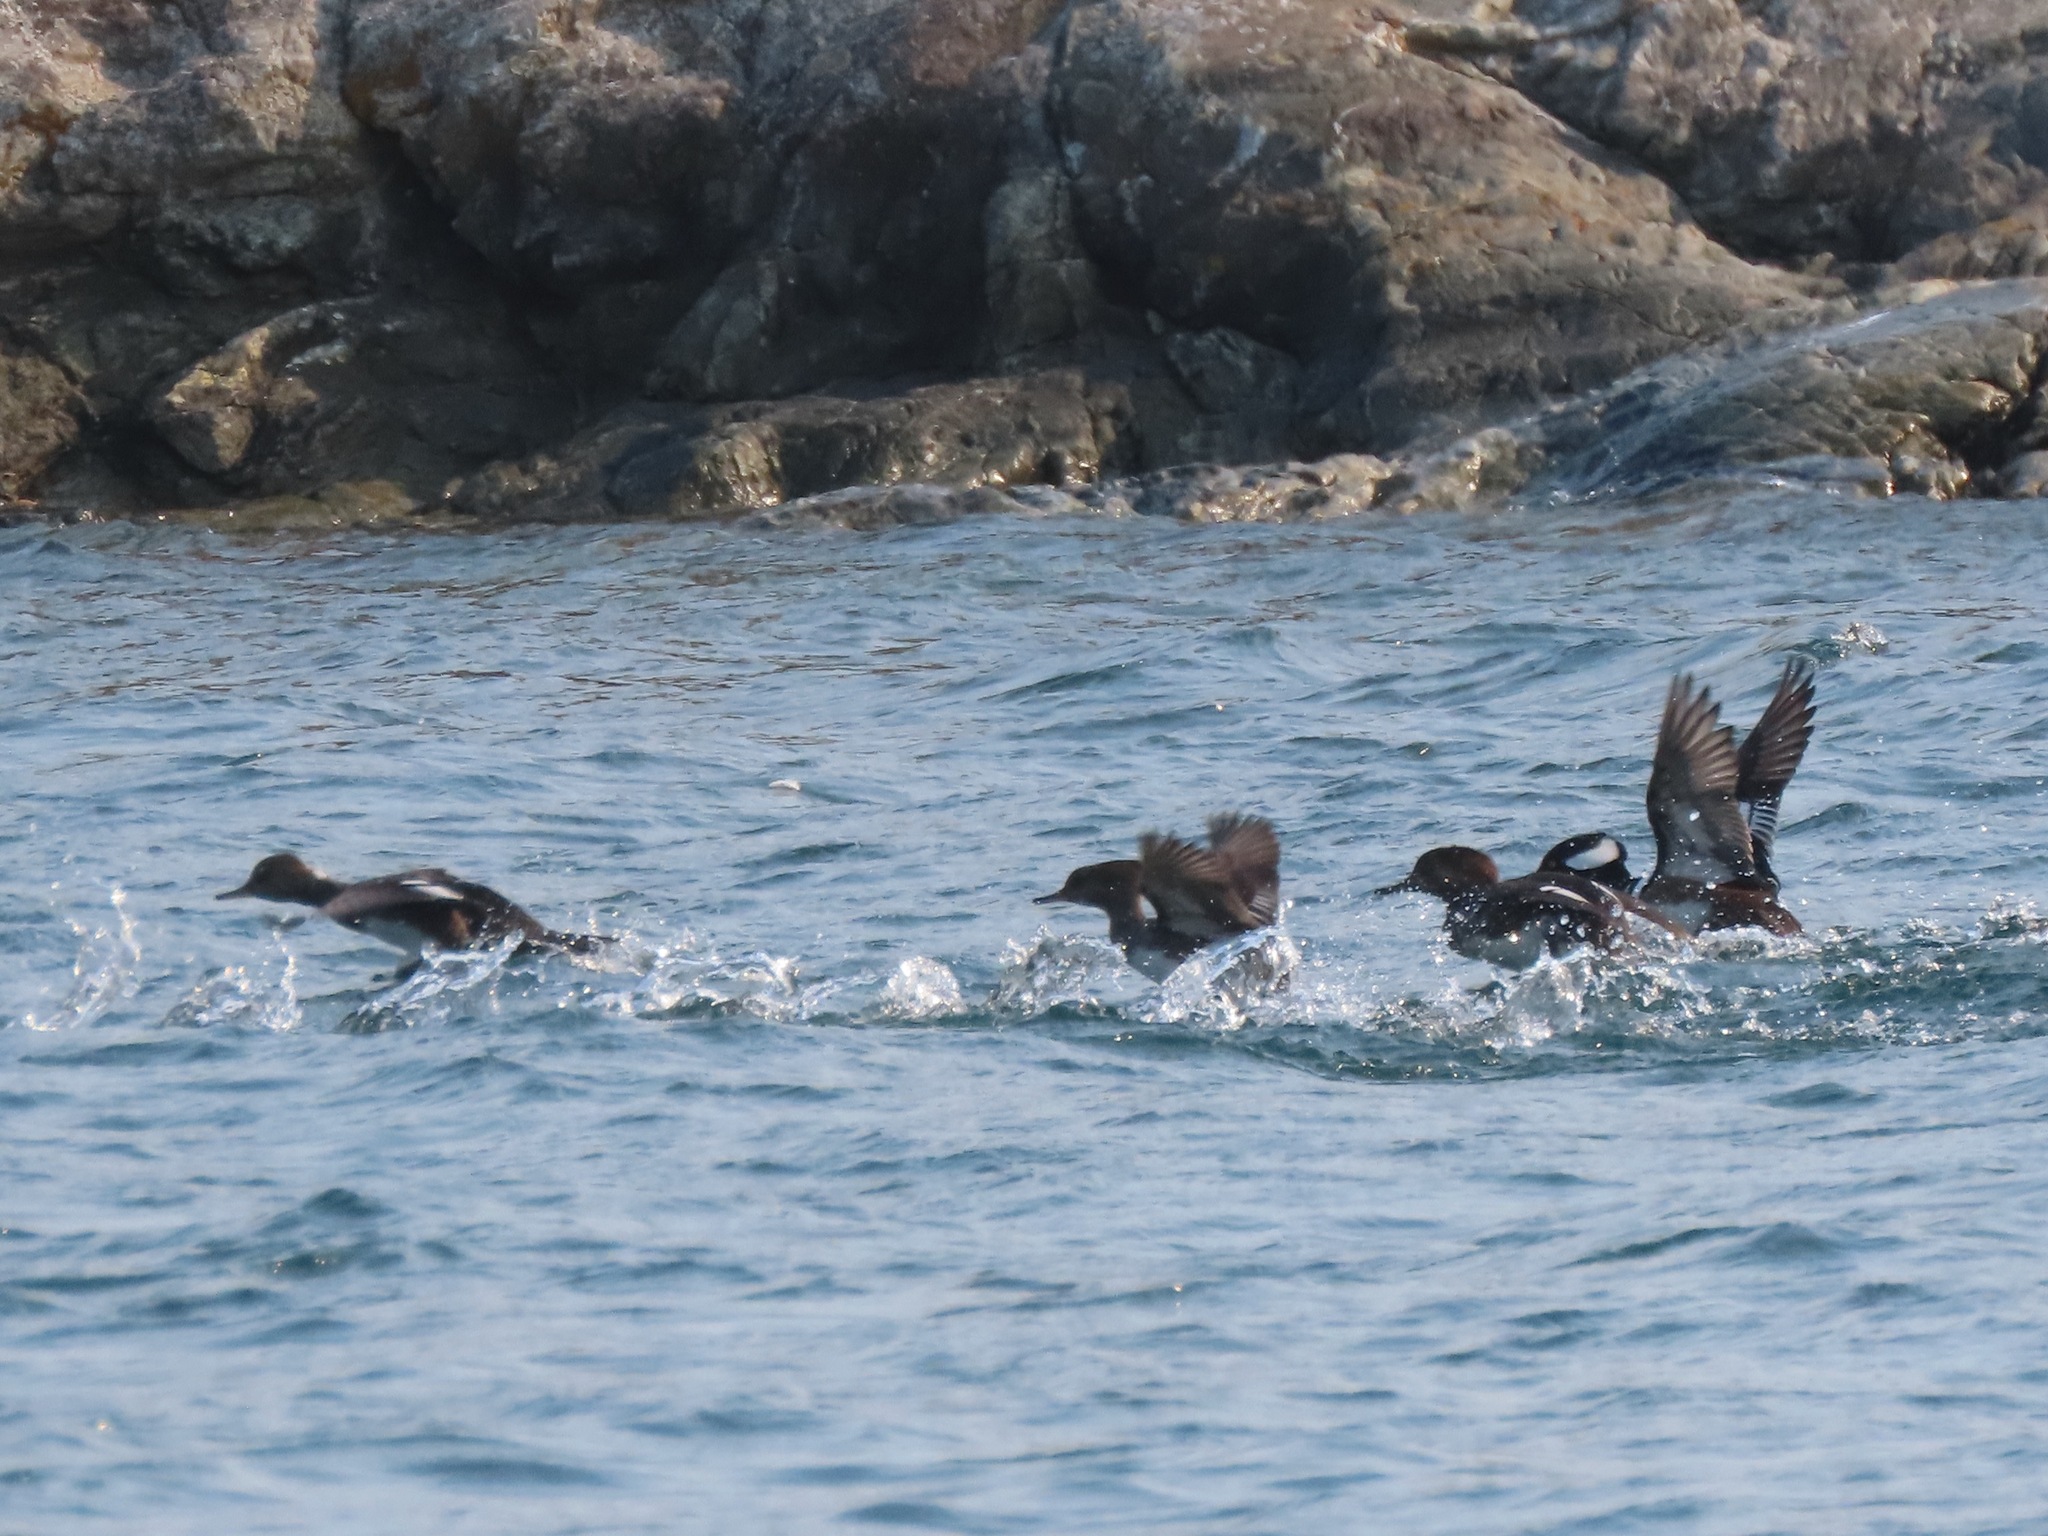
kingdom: Animalia
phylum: Chordata
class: Aves
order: Anseriformes
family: Anatidae
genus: Lophodytes
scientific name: Lophodytes cucullatus
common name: Hooded merganser
